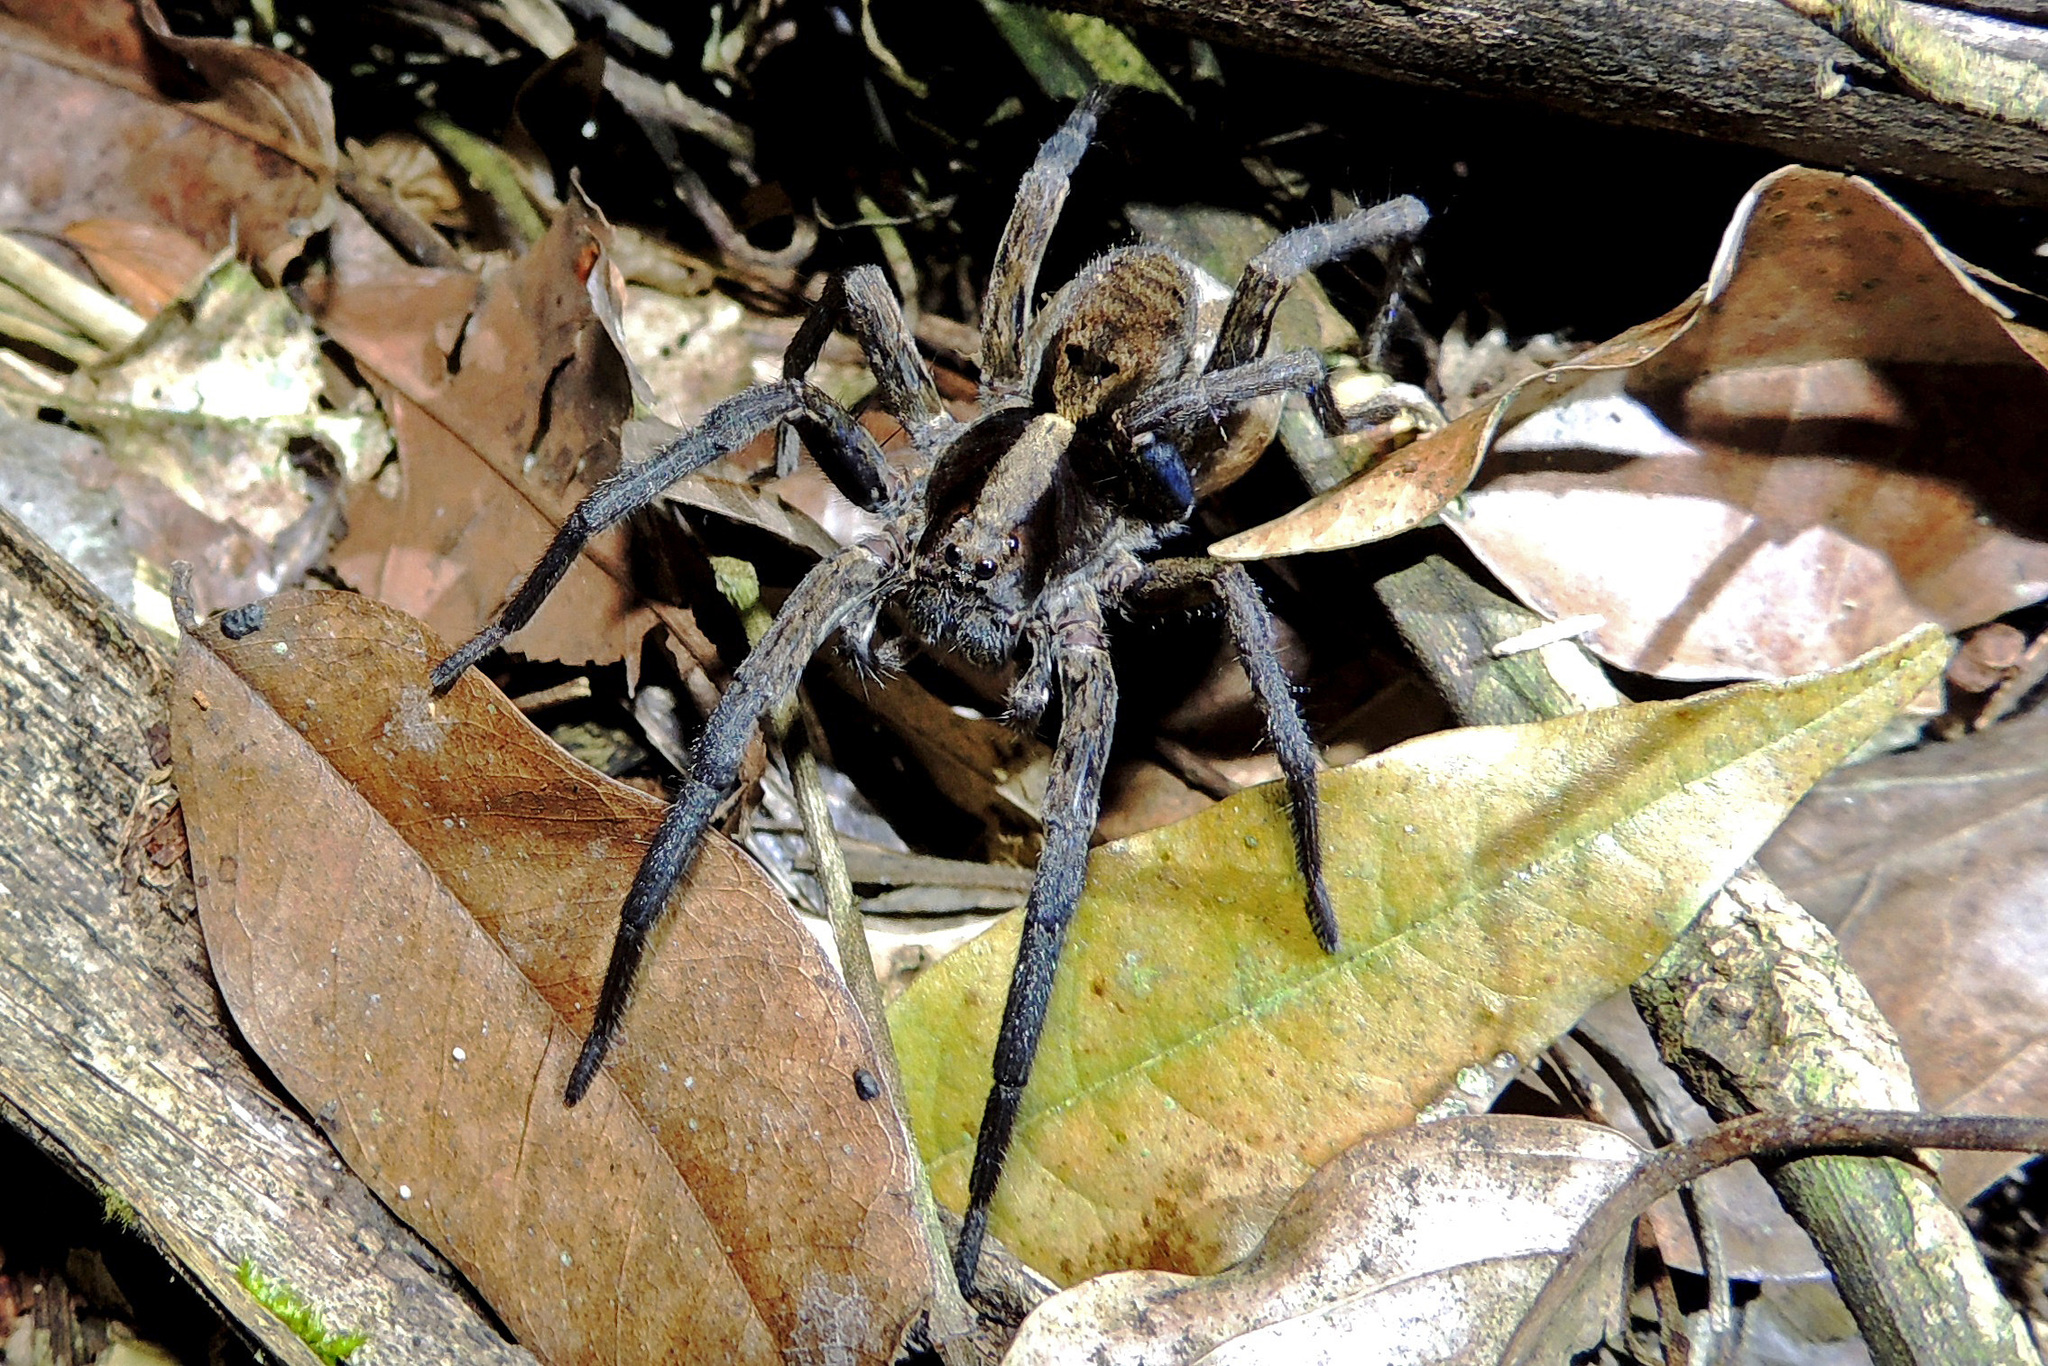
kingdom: Animalia
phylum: Arthropoda
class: Arachnida
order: Araneae
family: Lycosidae
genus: Hogna
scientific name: Hogna gumia
